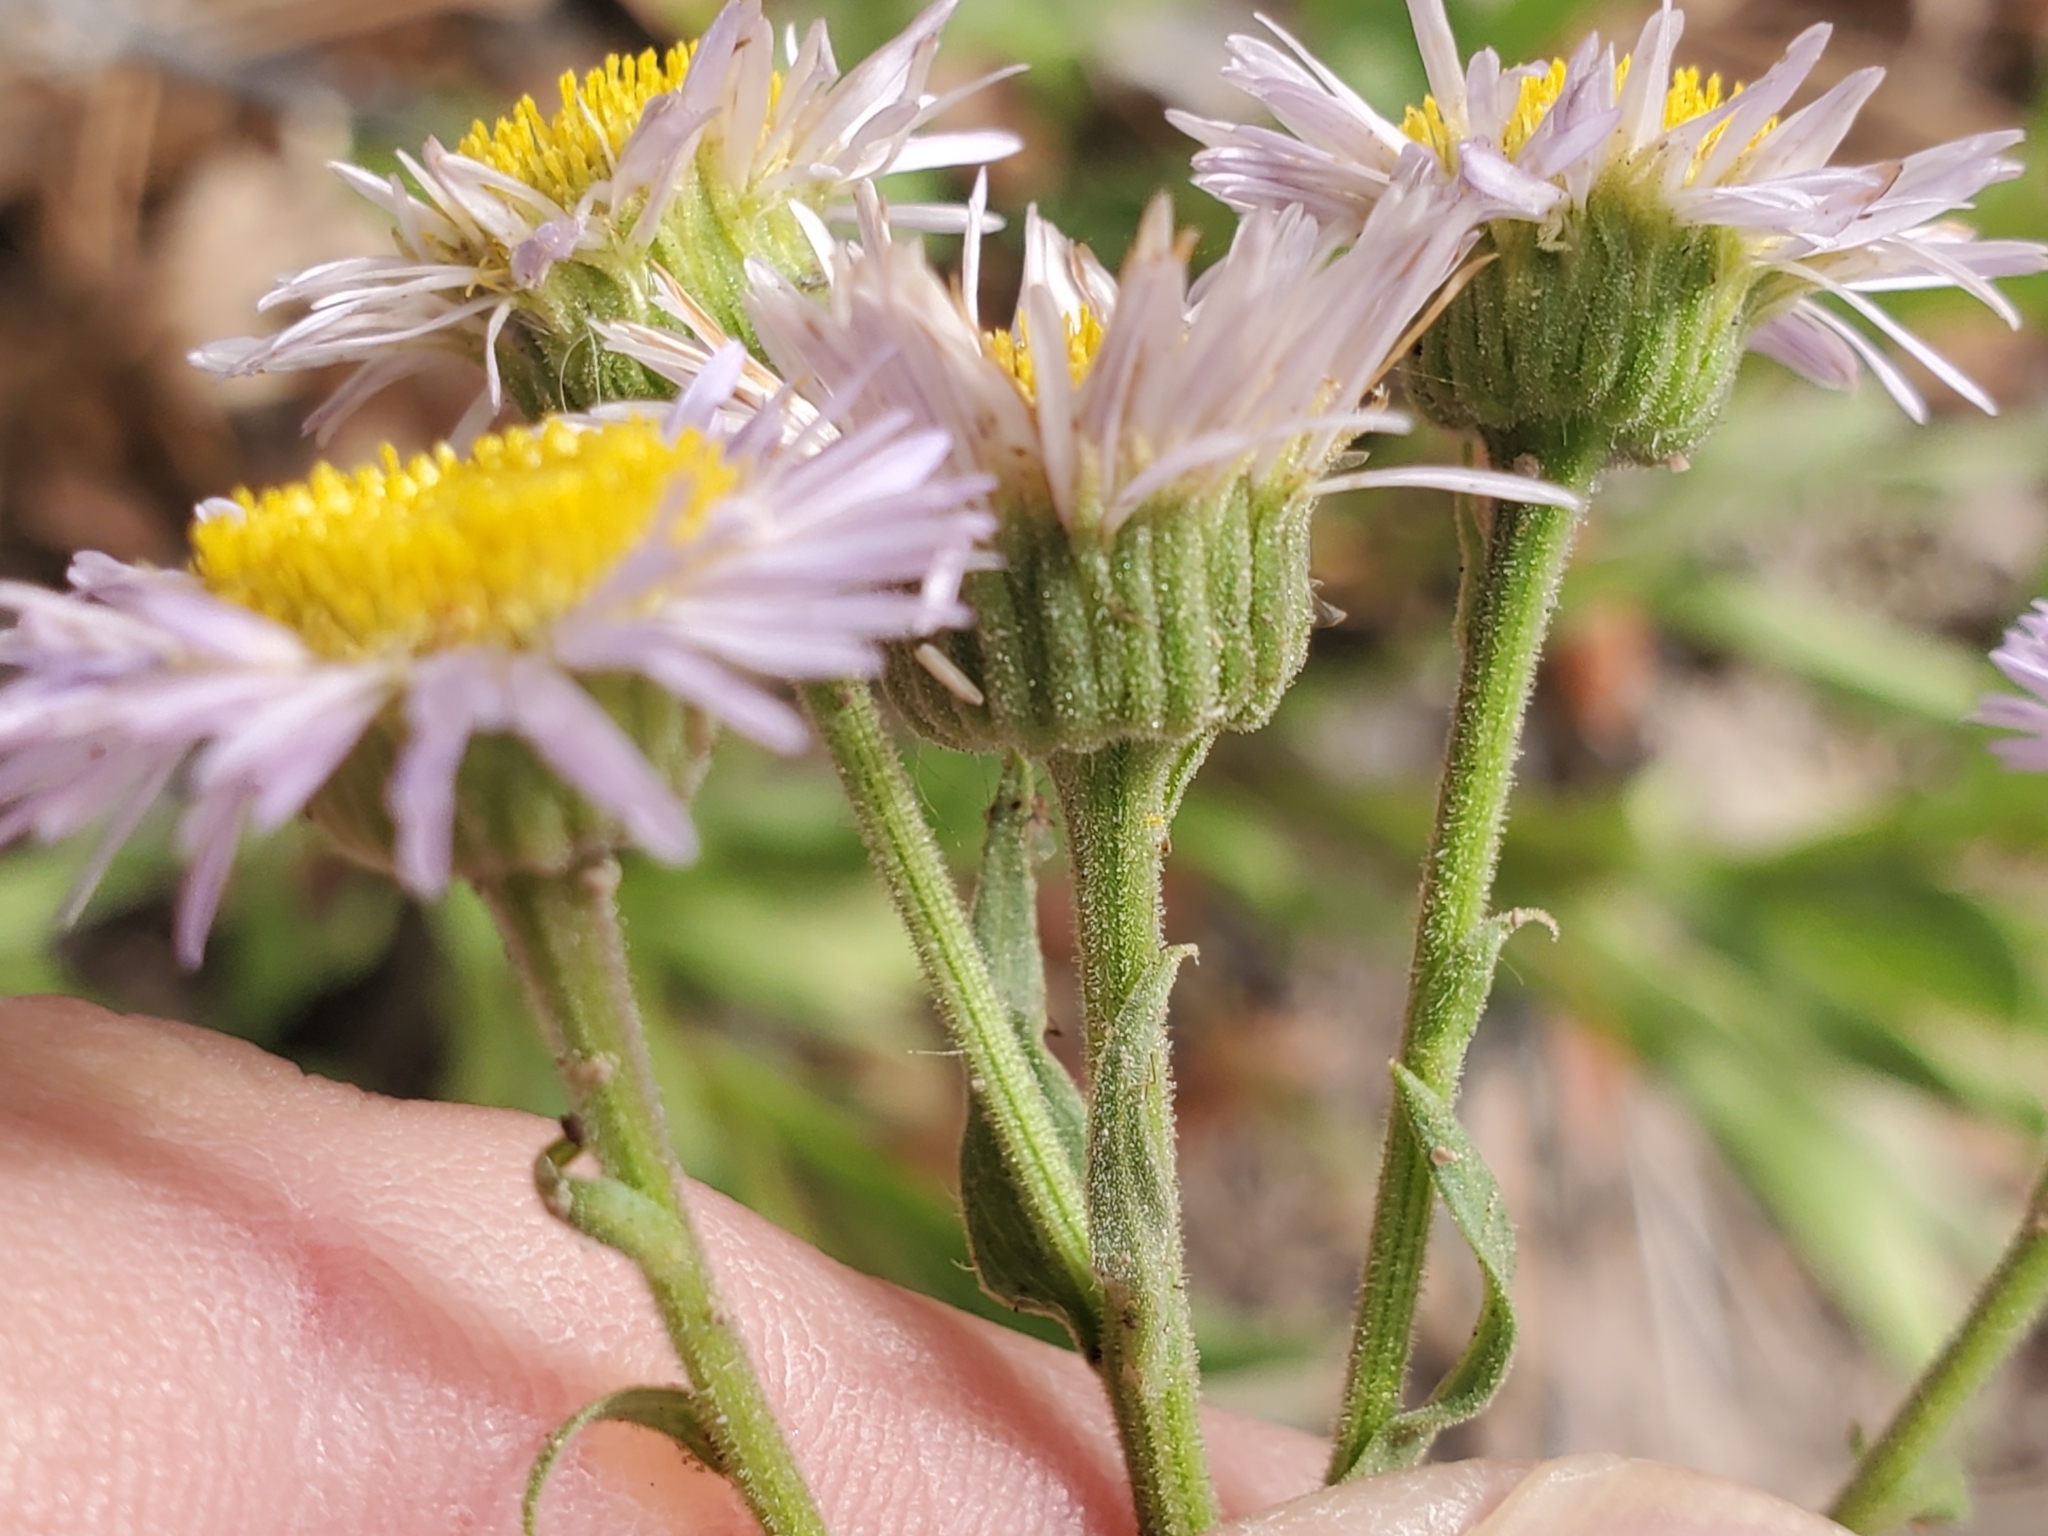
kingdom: Plantae
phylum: Tracheophyta
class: Magnoliopsida
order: Asterales
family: Asteraceae
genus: Erigeron
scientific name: Erigeron speciosus
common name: Aspen fleabane
